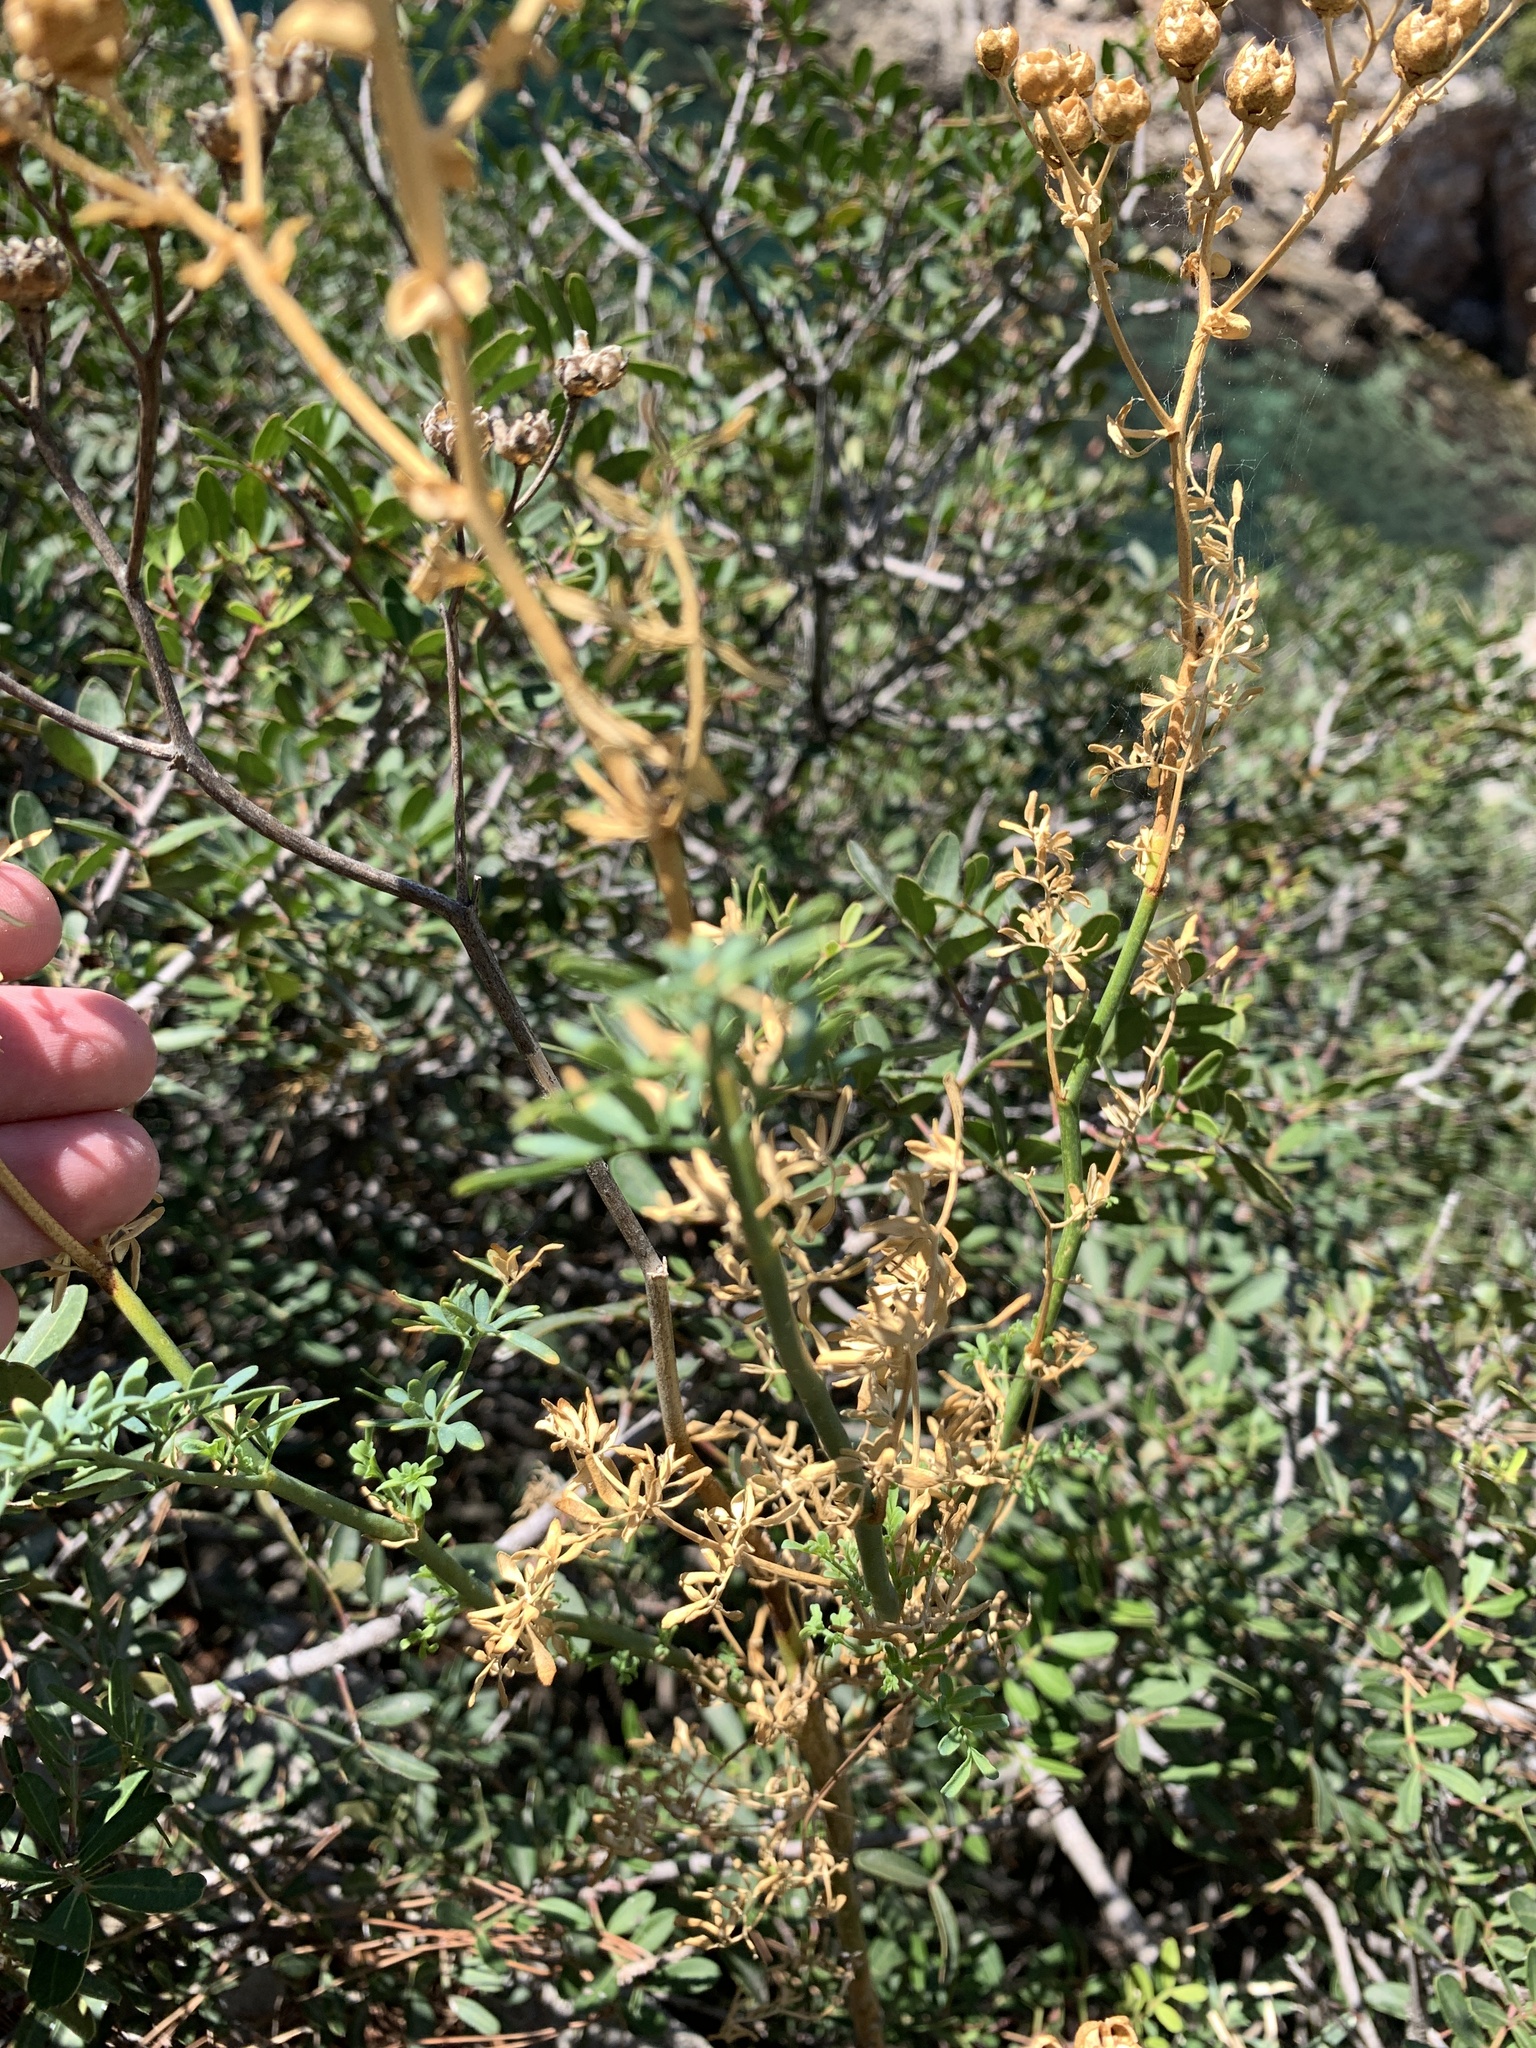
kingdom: Plantae
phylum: Tracheophyta
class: Magnoliopsida
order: Sapindales
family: Rutaceae
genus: Ruta
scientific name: Ruta chalepensis
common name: Fringed rue
